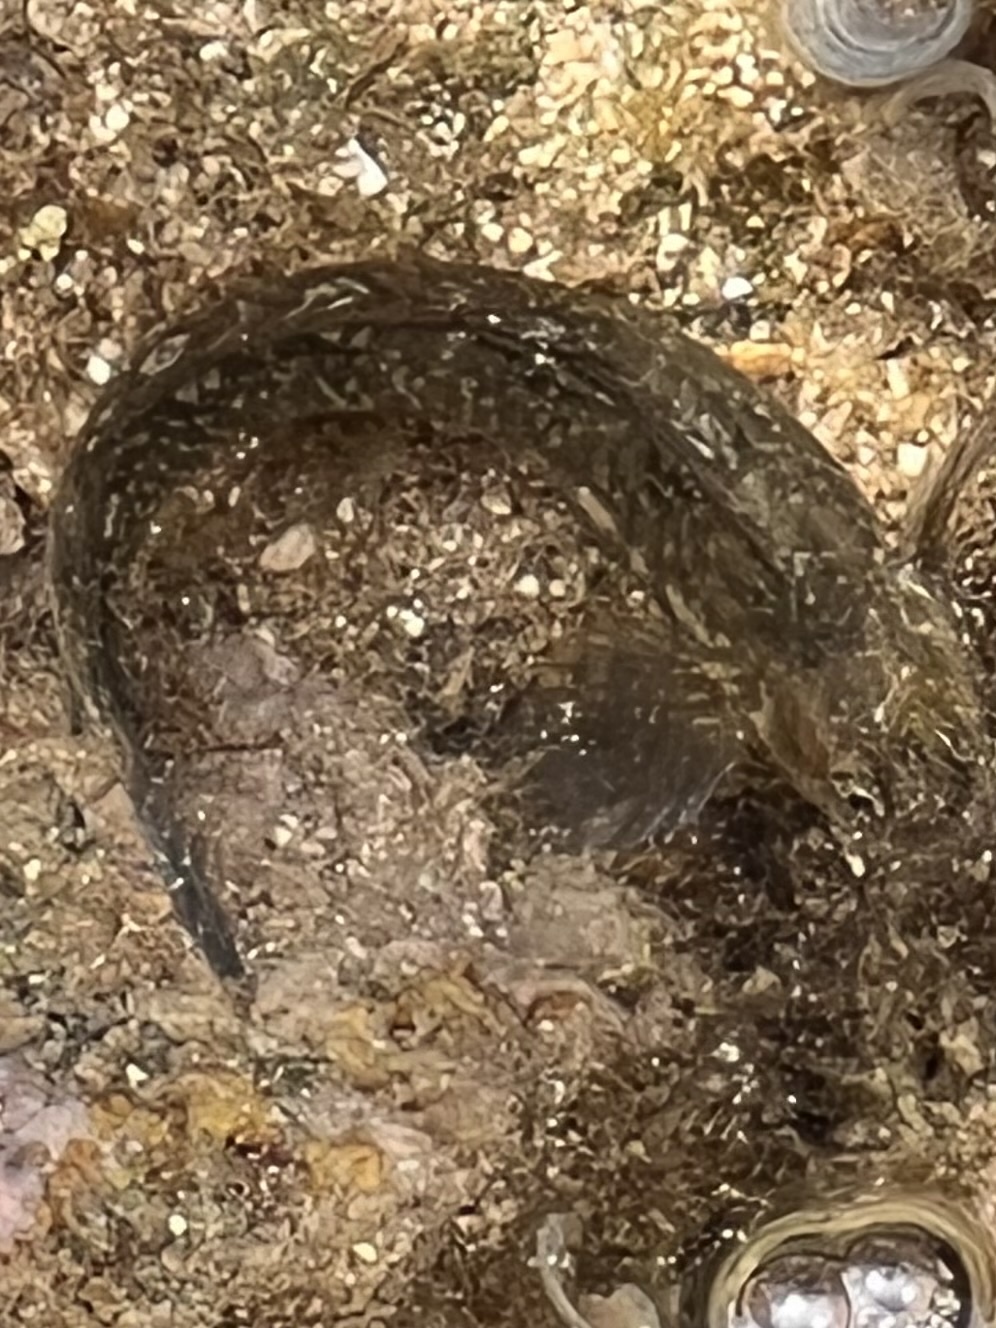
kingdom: Animalia
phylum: Chordata
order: Perciformes
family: Blenniidae
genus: Istiblennius
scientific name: Istiblennius zebra
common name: Zebra blenny
